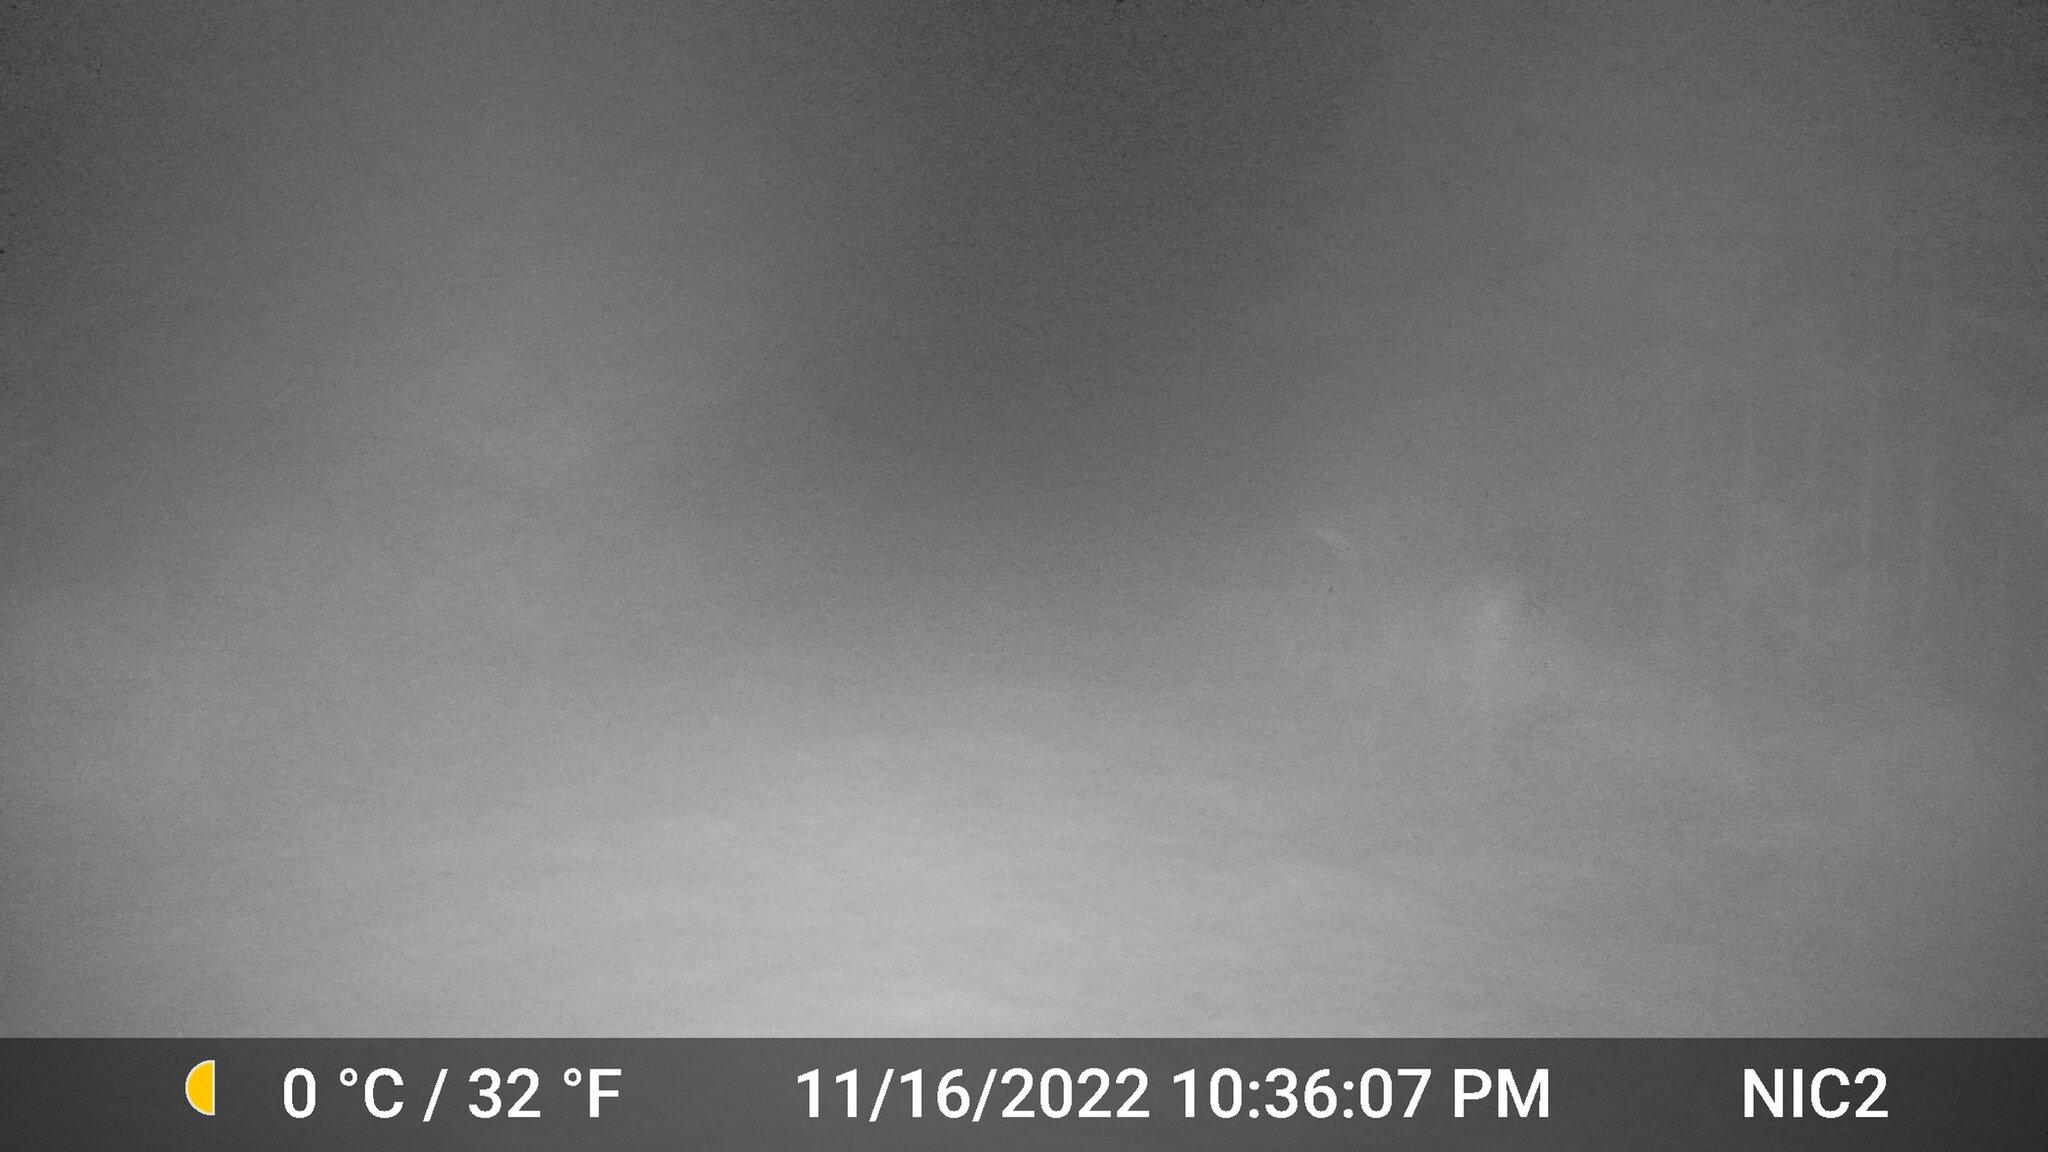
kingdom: Animalia
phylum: Chordata
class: Mammalia
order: Artiodactyla
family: Cervidae
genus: Odocoileus
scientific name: Odocoileus virginianus
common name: White-tailed deer
